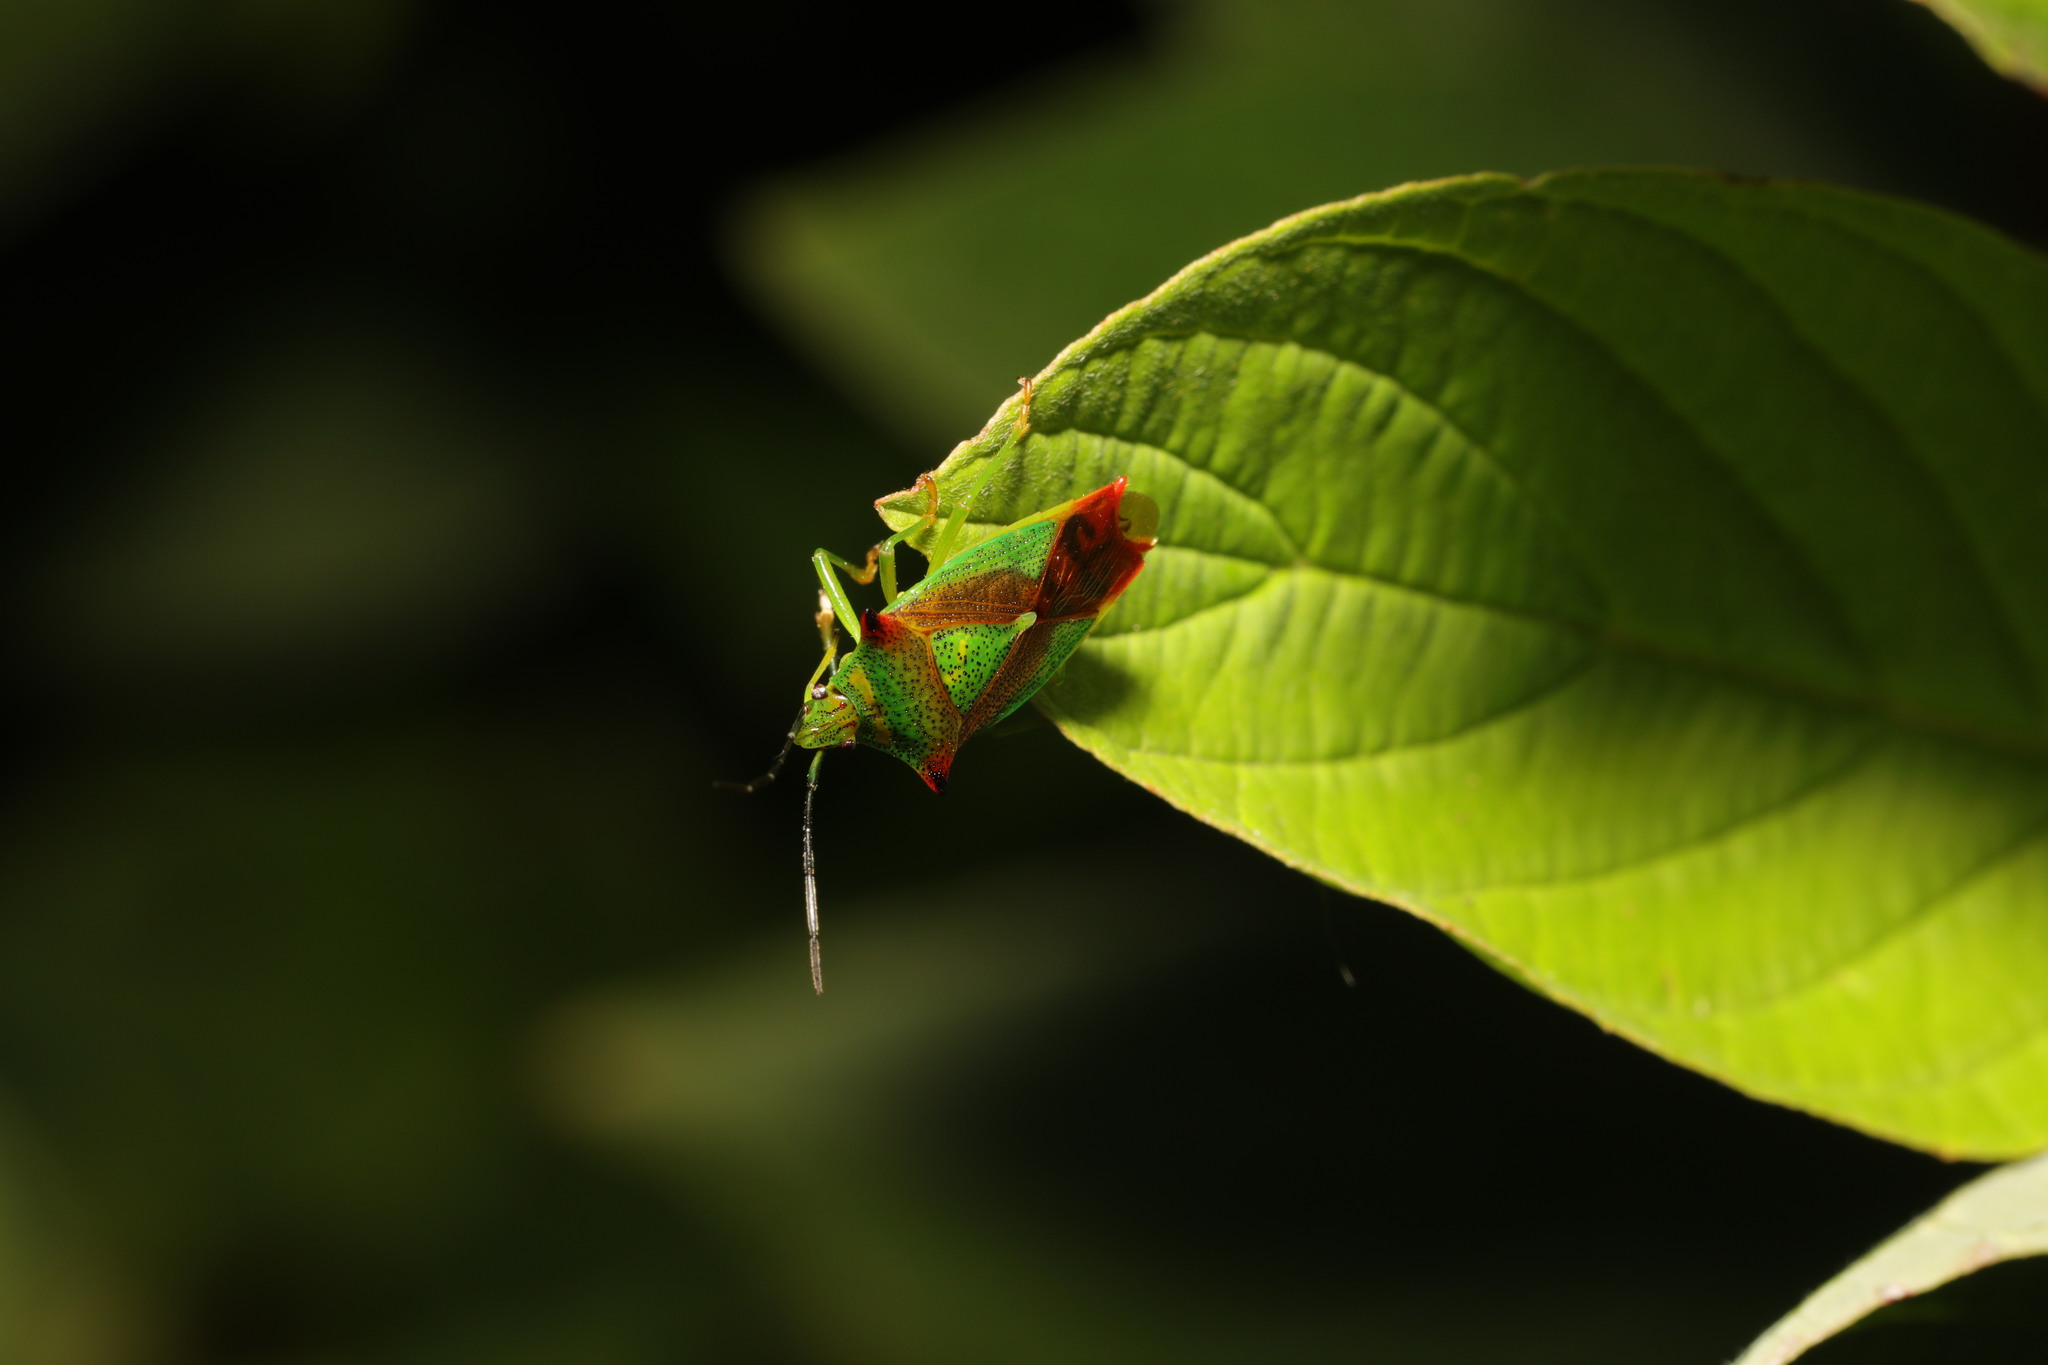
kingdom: Animalia
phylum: Arthropoda
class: Insecta
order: Hemiptera
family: Acanthosomatidae
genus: Acanthosoma
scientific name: Acanthosoma haemorrhoidale
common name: Hawthorn shieldbug
